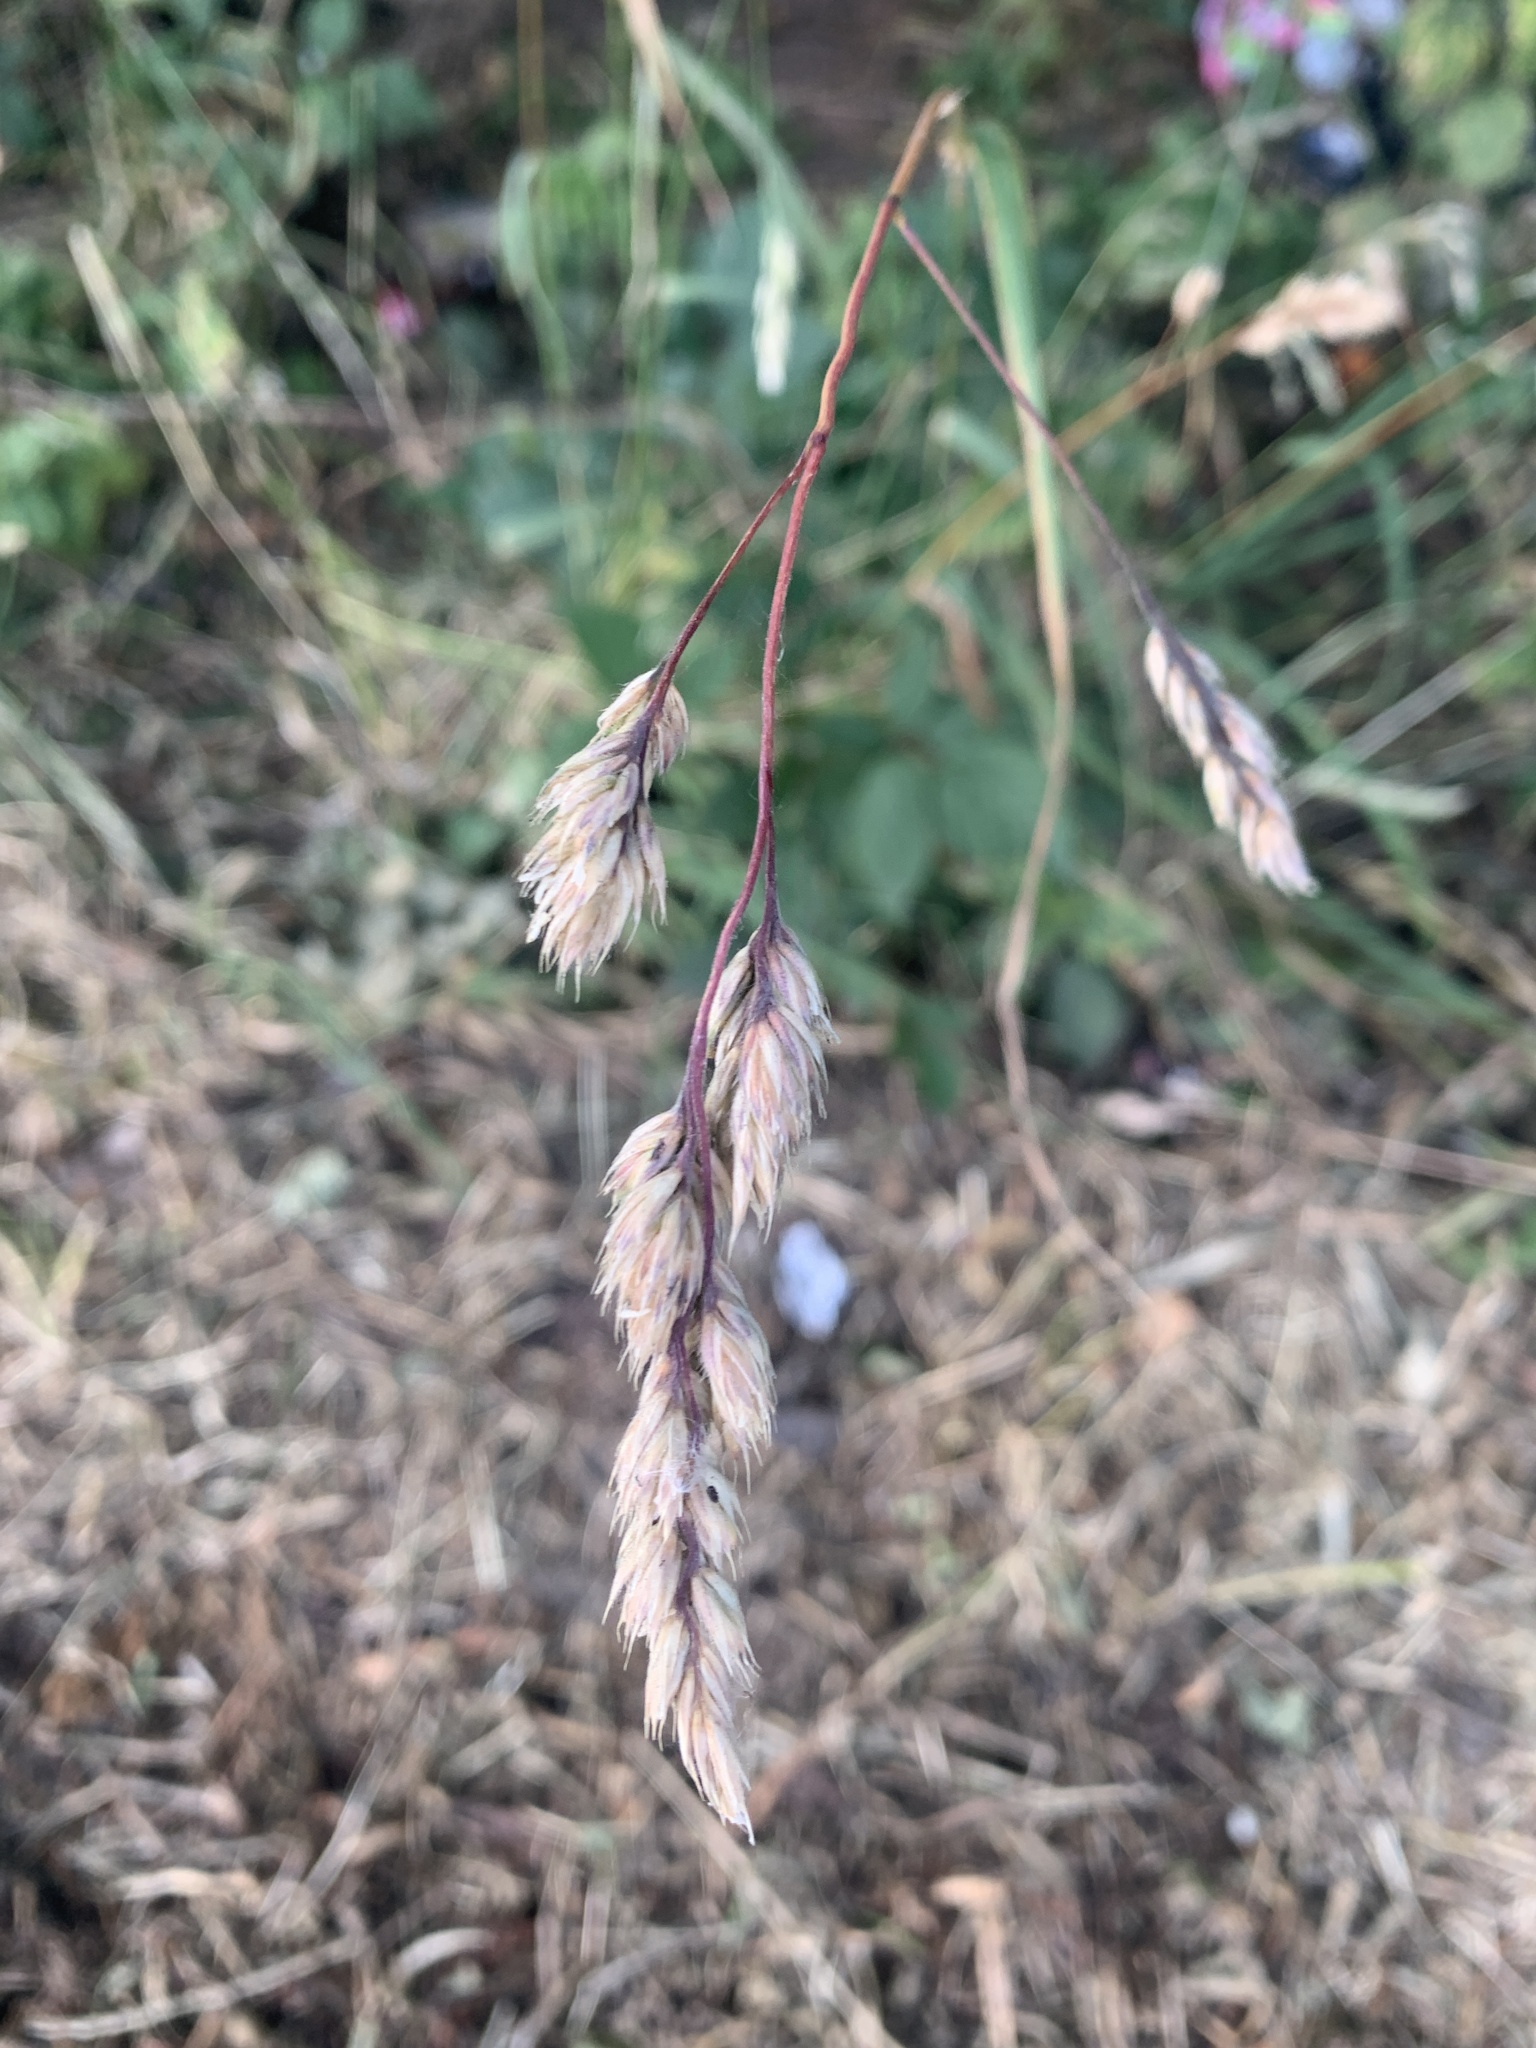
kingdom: Plantae
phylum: Tracheophyta
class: Liliopsida
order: Poales
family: Poaceae
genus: Dactylis
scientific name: Dactylis glomerata
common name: Orchardgrass
